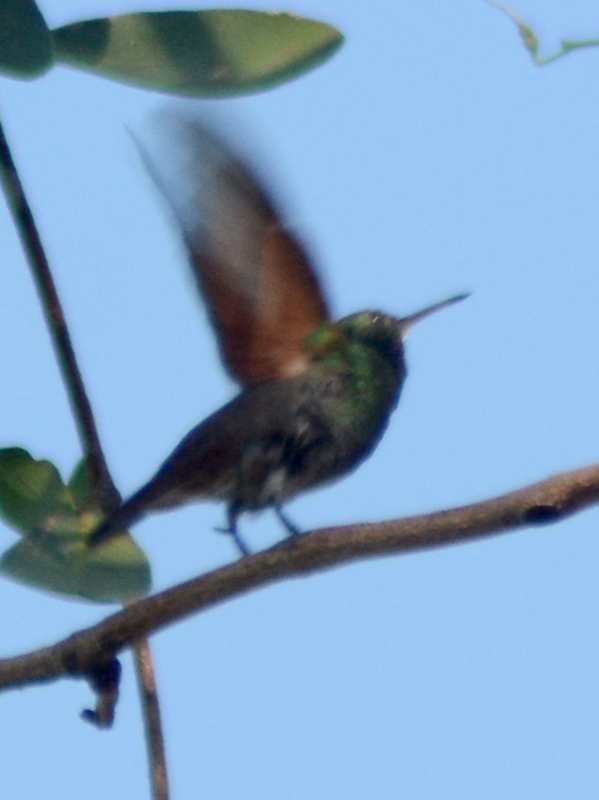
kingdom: Animalia
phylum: Chordata
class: Aves
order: Apodiformes
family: Trochilidae
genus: Saucerottia
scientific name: Saucerottia beryllina
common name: Berylline hummingbird
